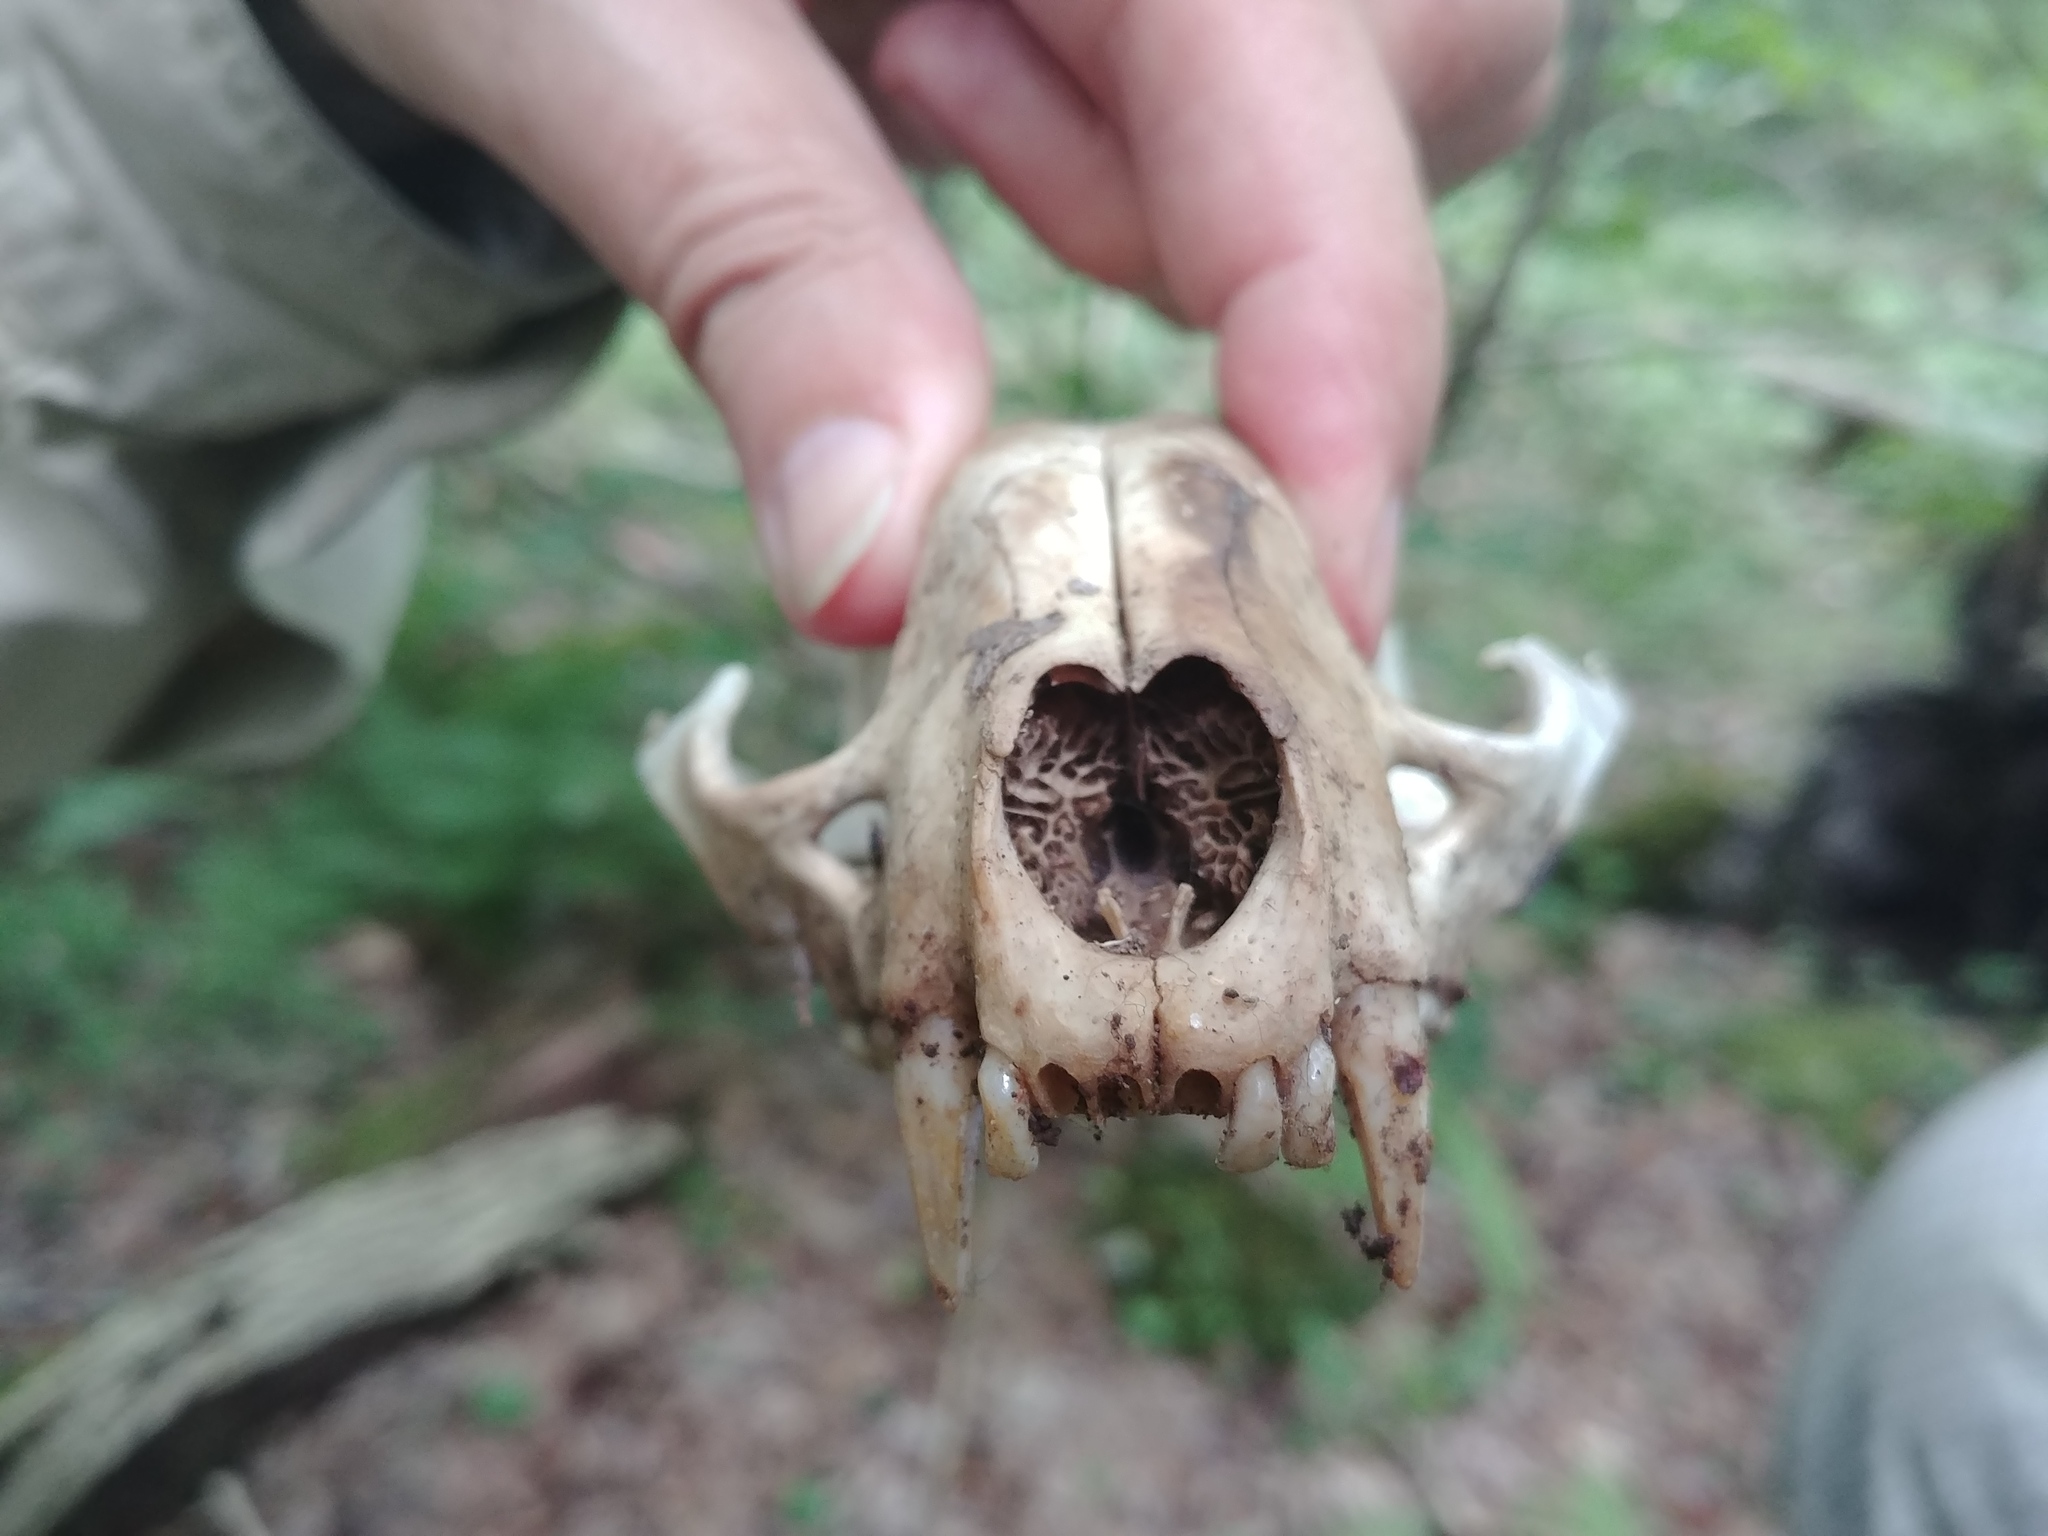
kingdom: Animalia
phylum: Chordata
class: Mammalia
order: Carnivora
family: Procyonidae
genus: Procyon
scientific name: Procyon lotor
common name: Raccoon
